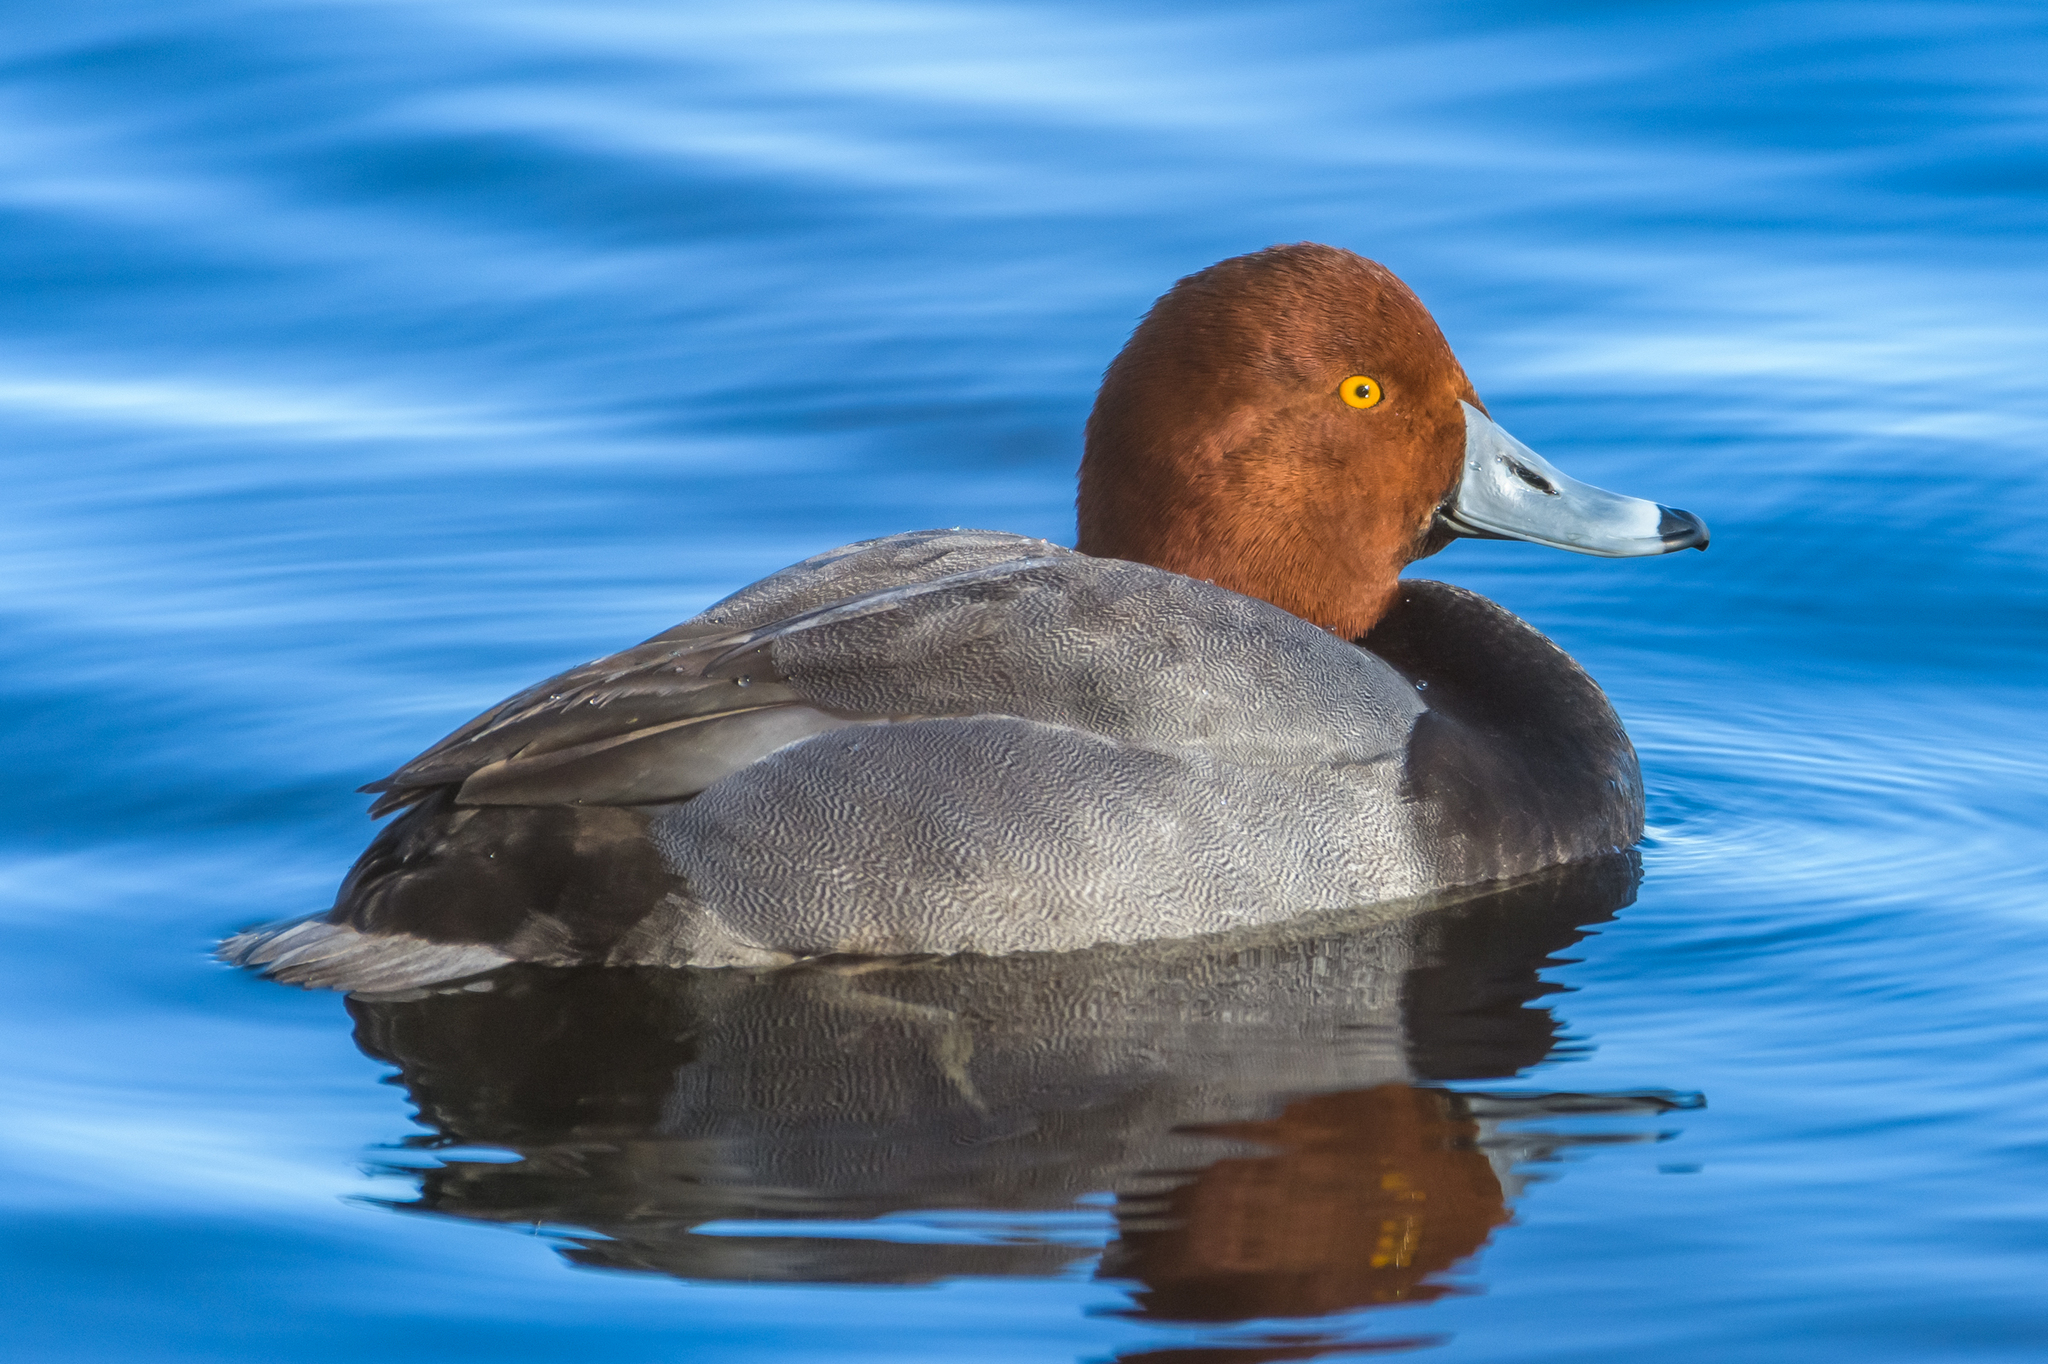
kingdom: Animalia
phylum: Chordata
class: Aves
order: Anseriformes
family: Anatidae
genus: Aythya
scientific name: Aythya americana
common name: Redhead
